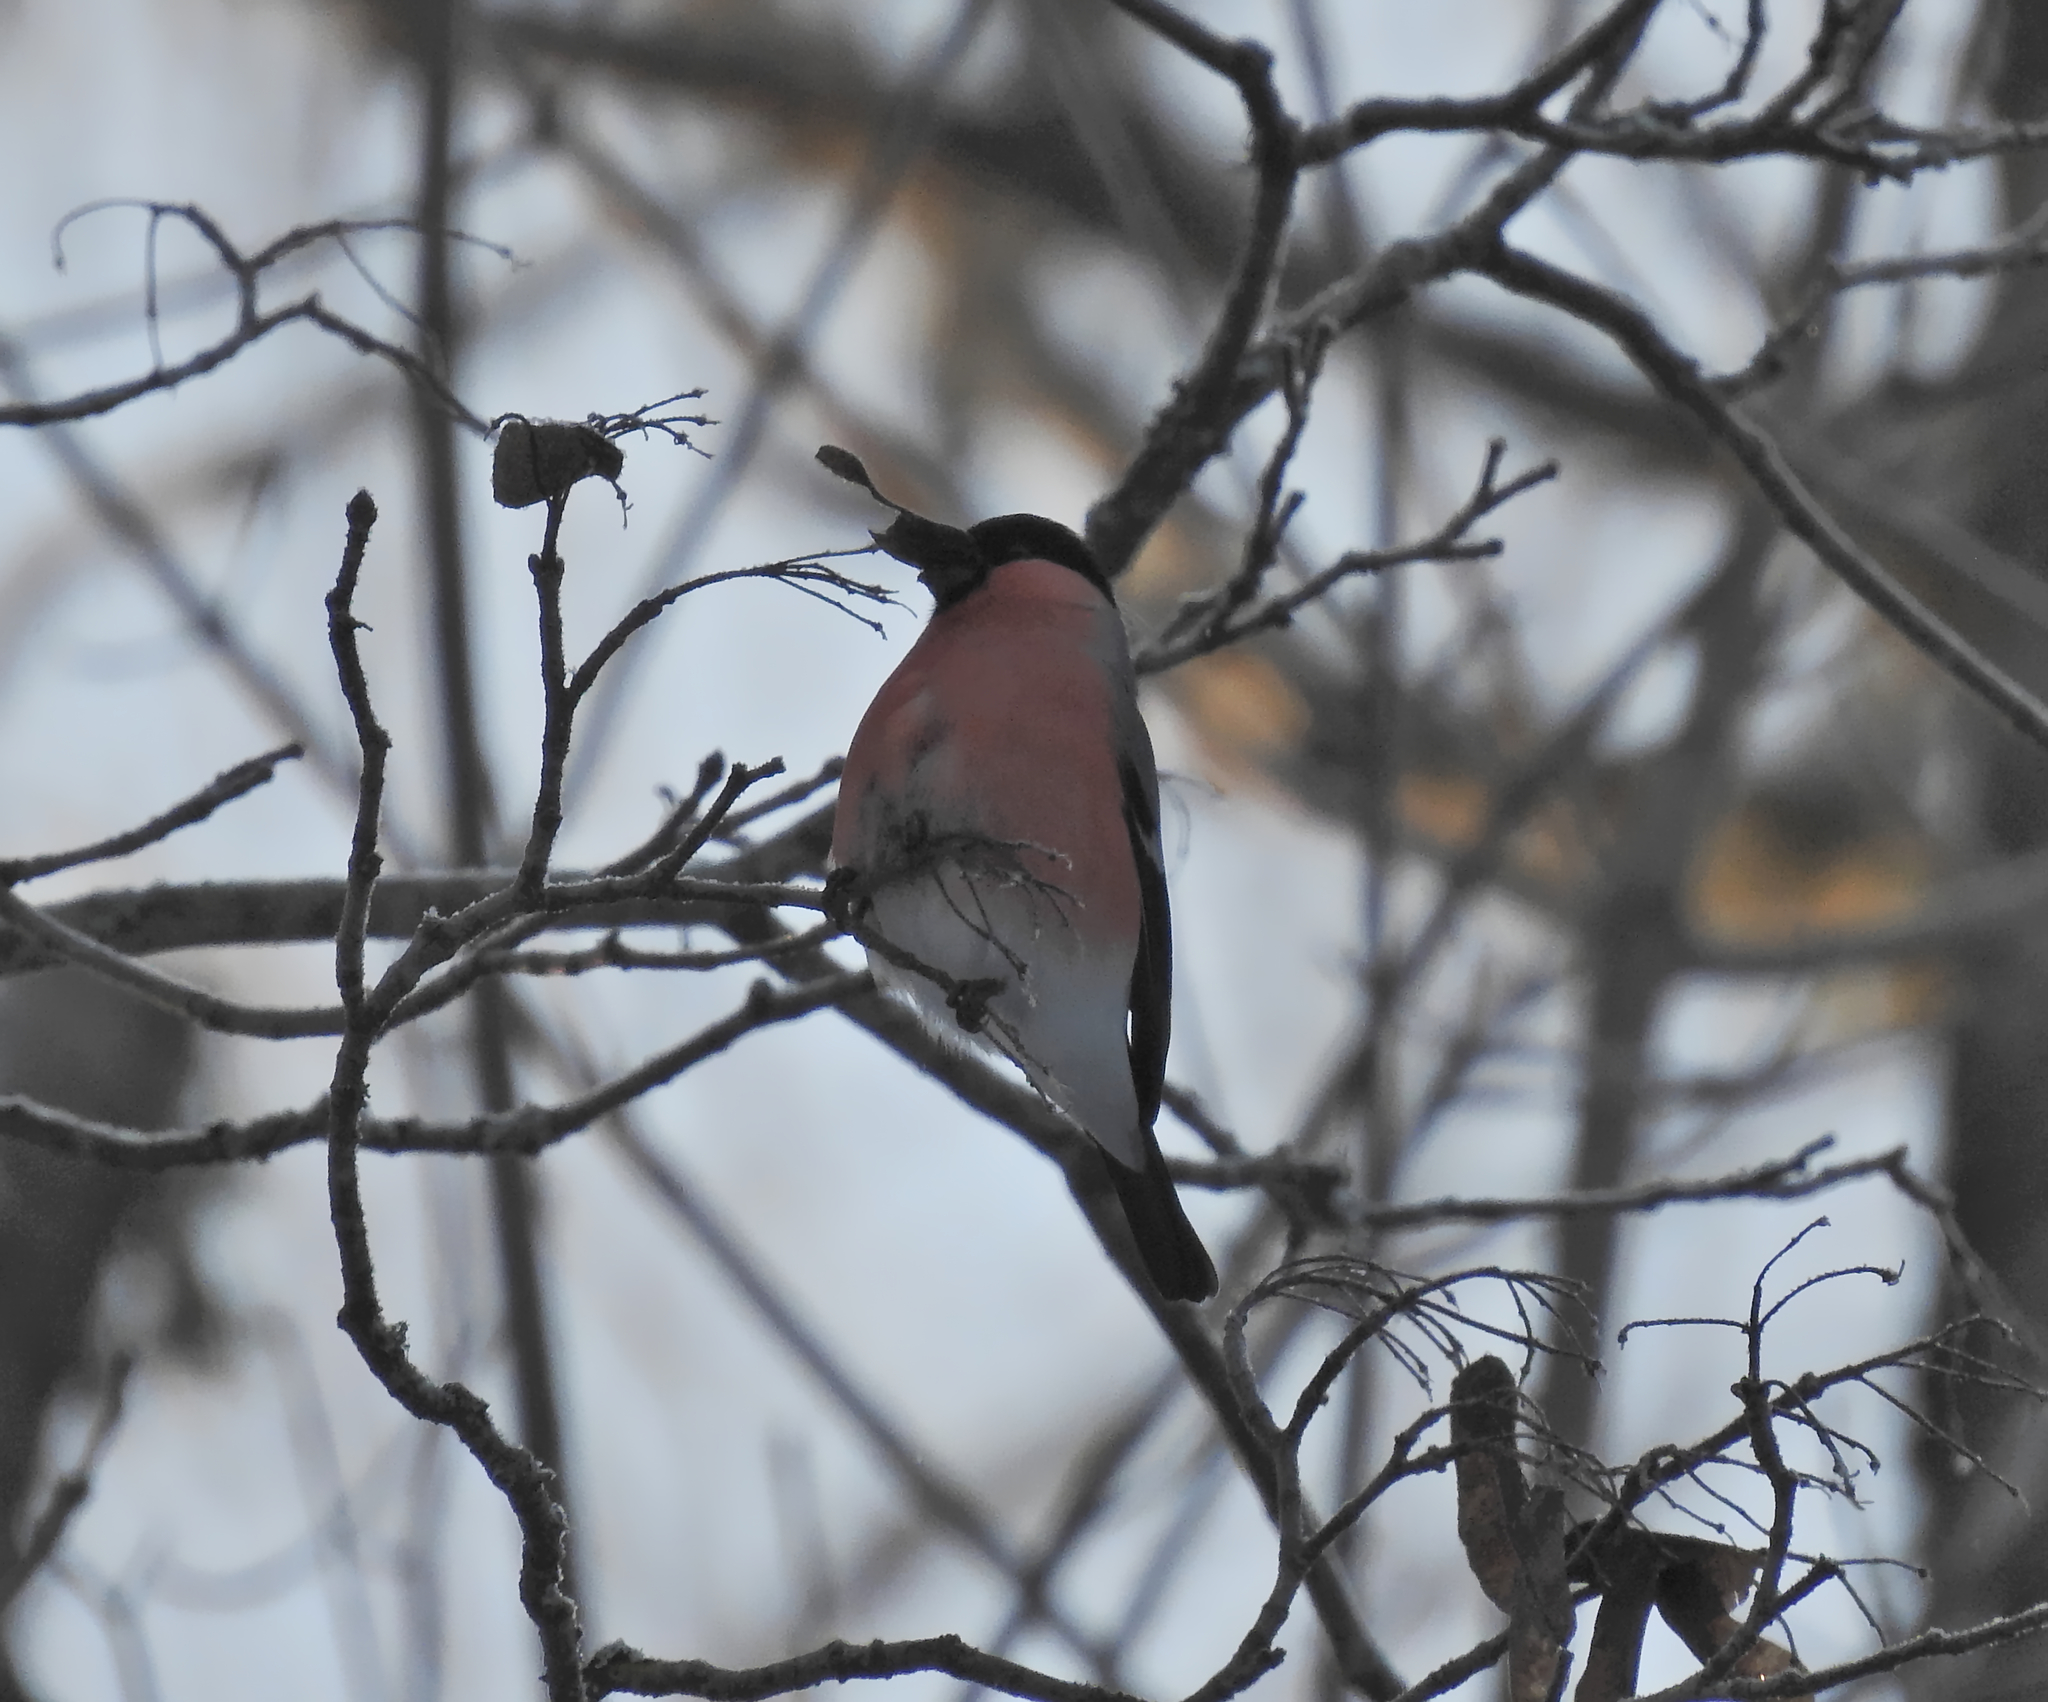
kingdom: Animalia
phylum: Chordata
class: Aves
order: Passeriformes
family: Fringillidae
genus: Pyrrhula
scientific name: Pyrrhula pyrrhula
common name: Eurasian bullfinch
